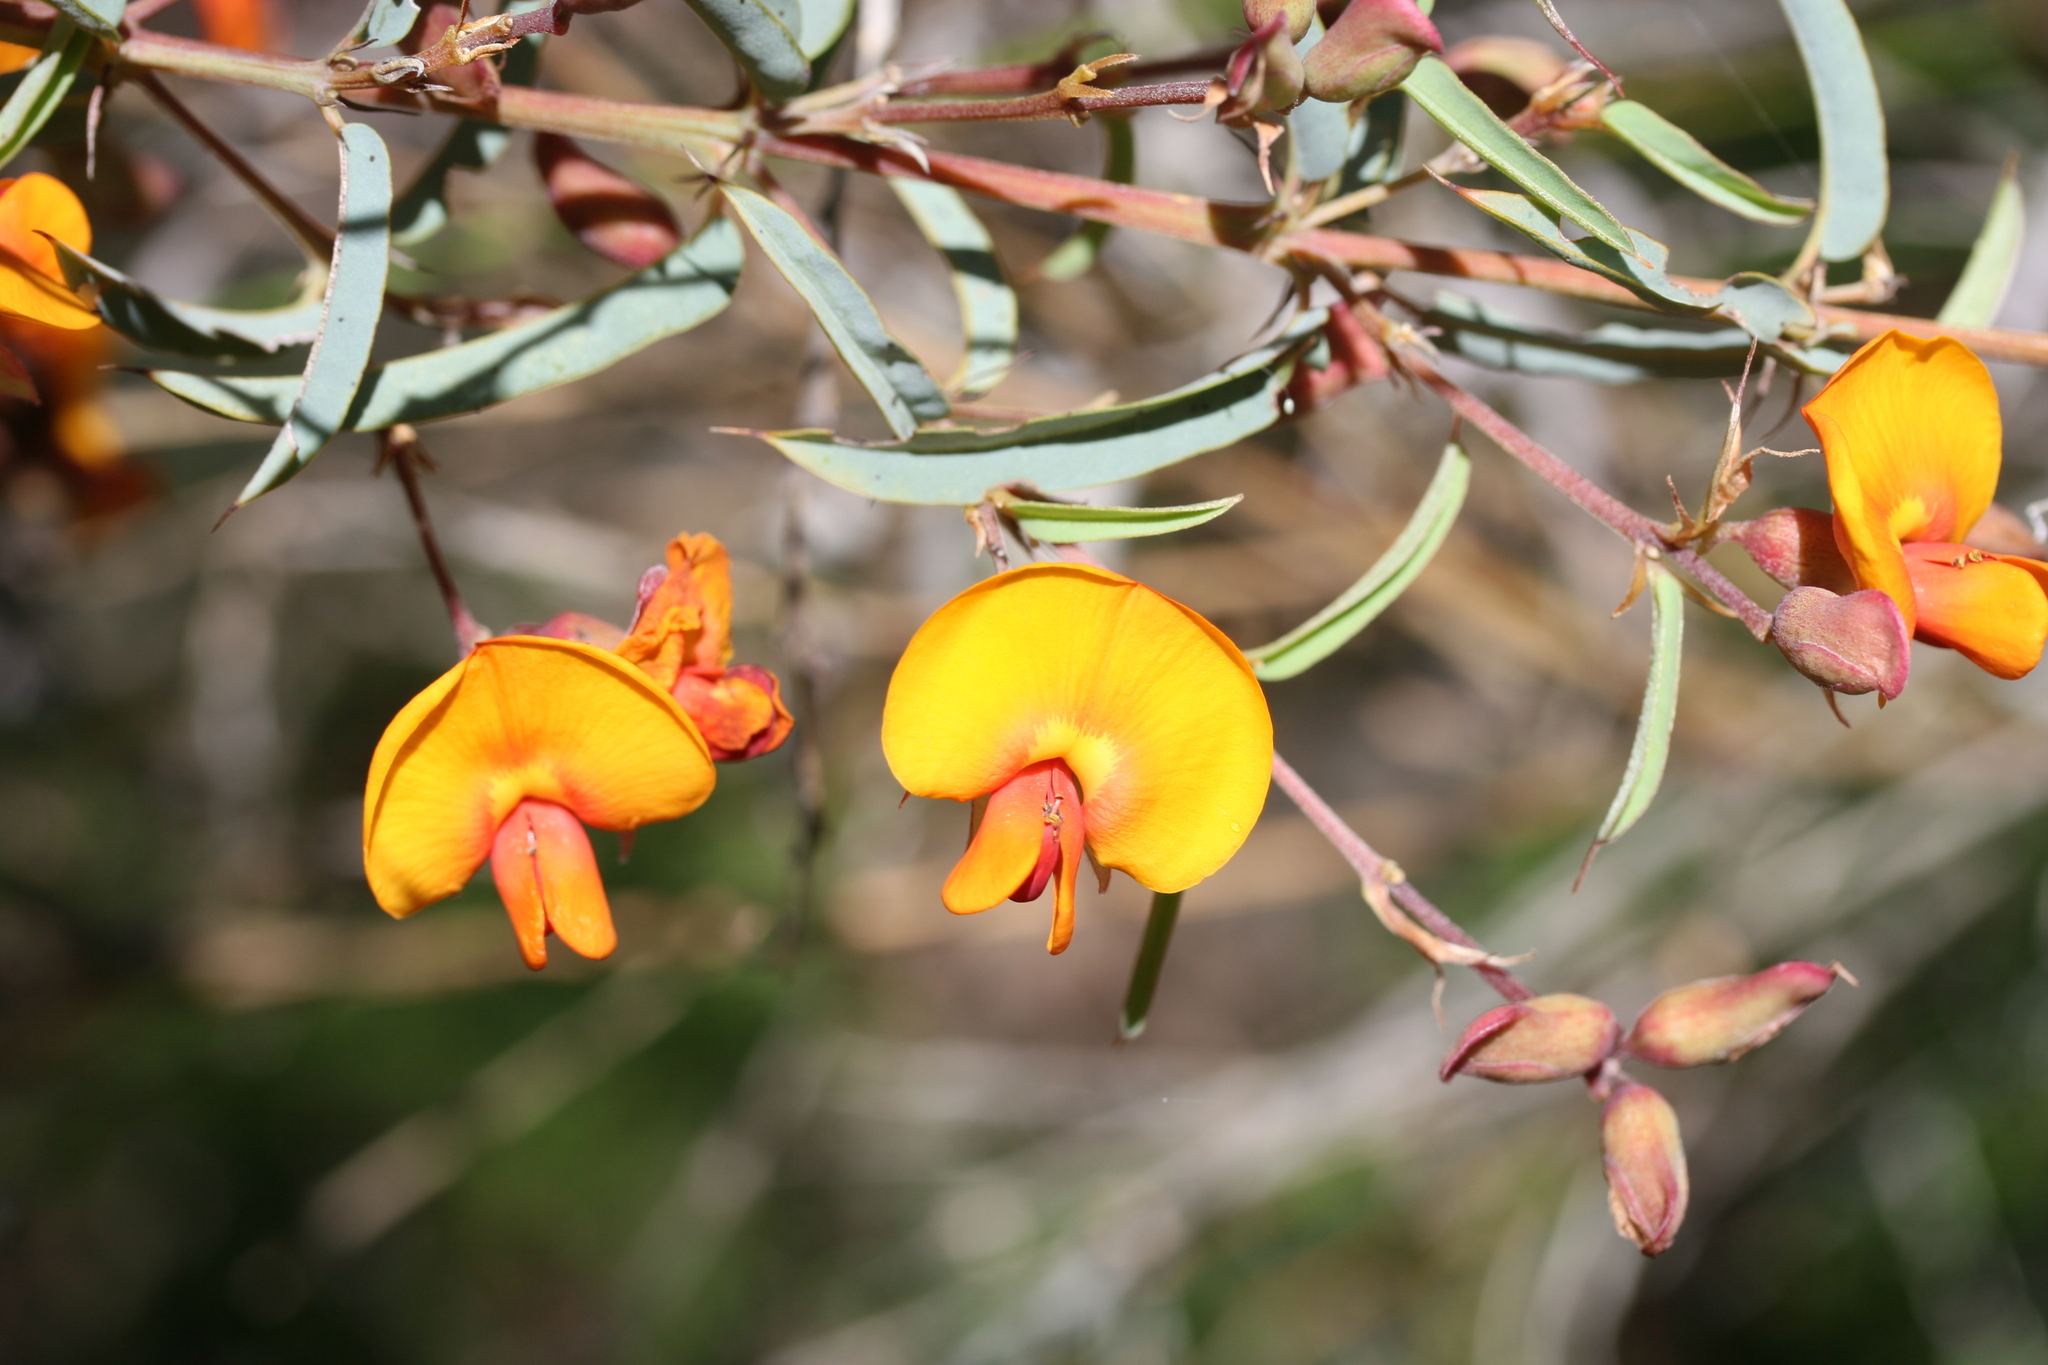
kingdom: Plantae
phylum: Tracheophyta
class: Magnoliopsida
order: Fabales
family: Fabaceae
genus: Gastrolobium
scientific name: Gastrolobium calycinum
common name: York road poison
